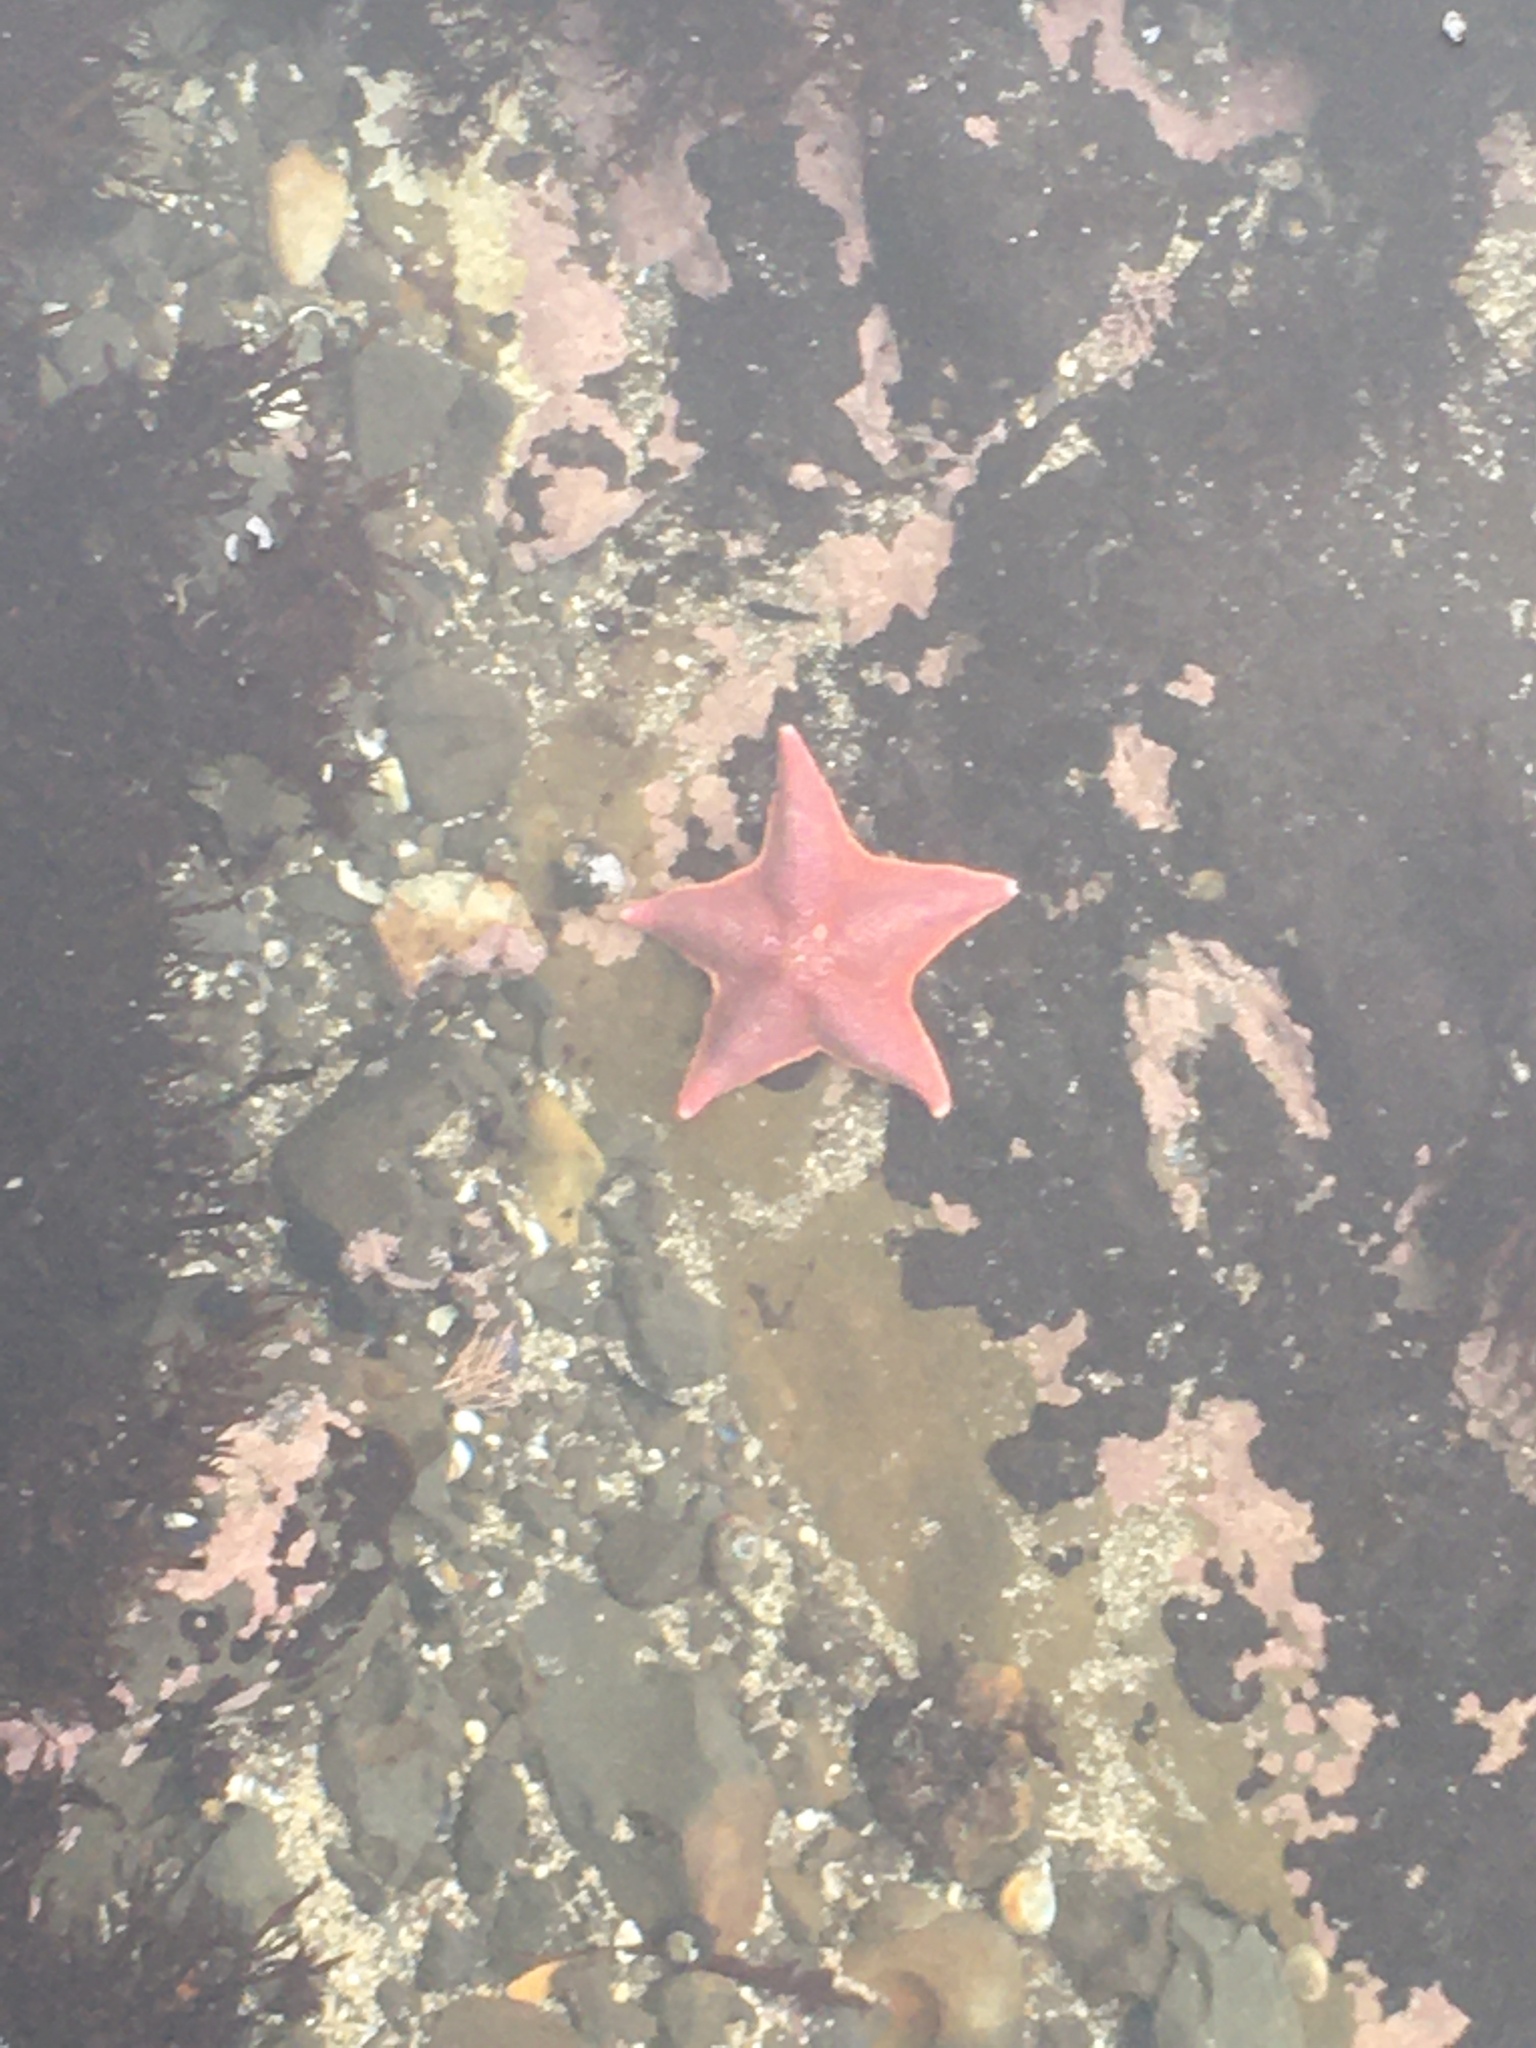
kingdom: Animalia
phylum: Echinodermata
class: Asteroidea
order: Valvatida
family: Asterinidae
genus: Patiria
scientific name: Patiria miniata
